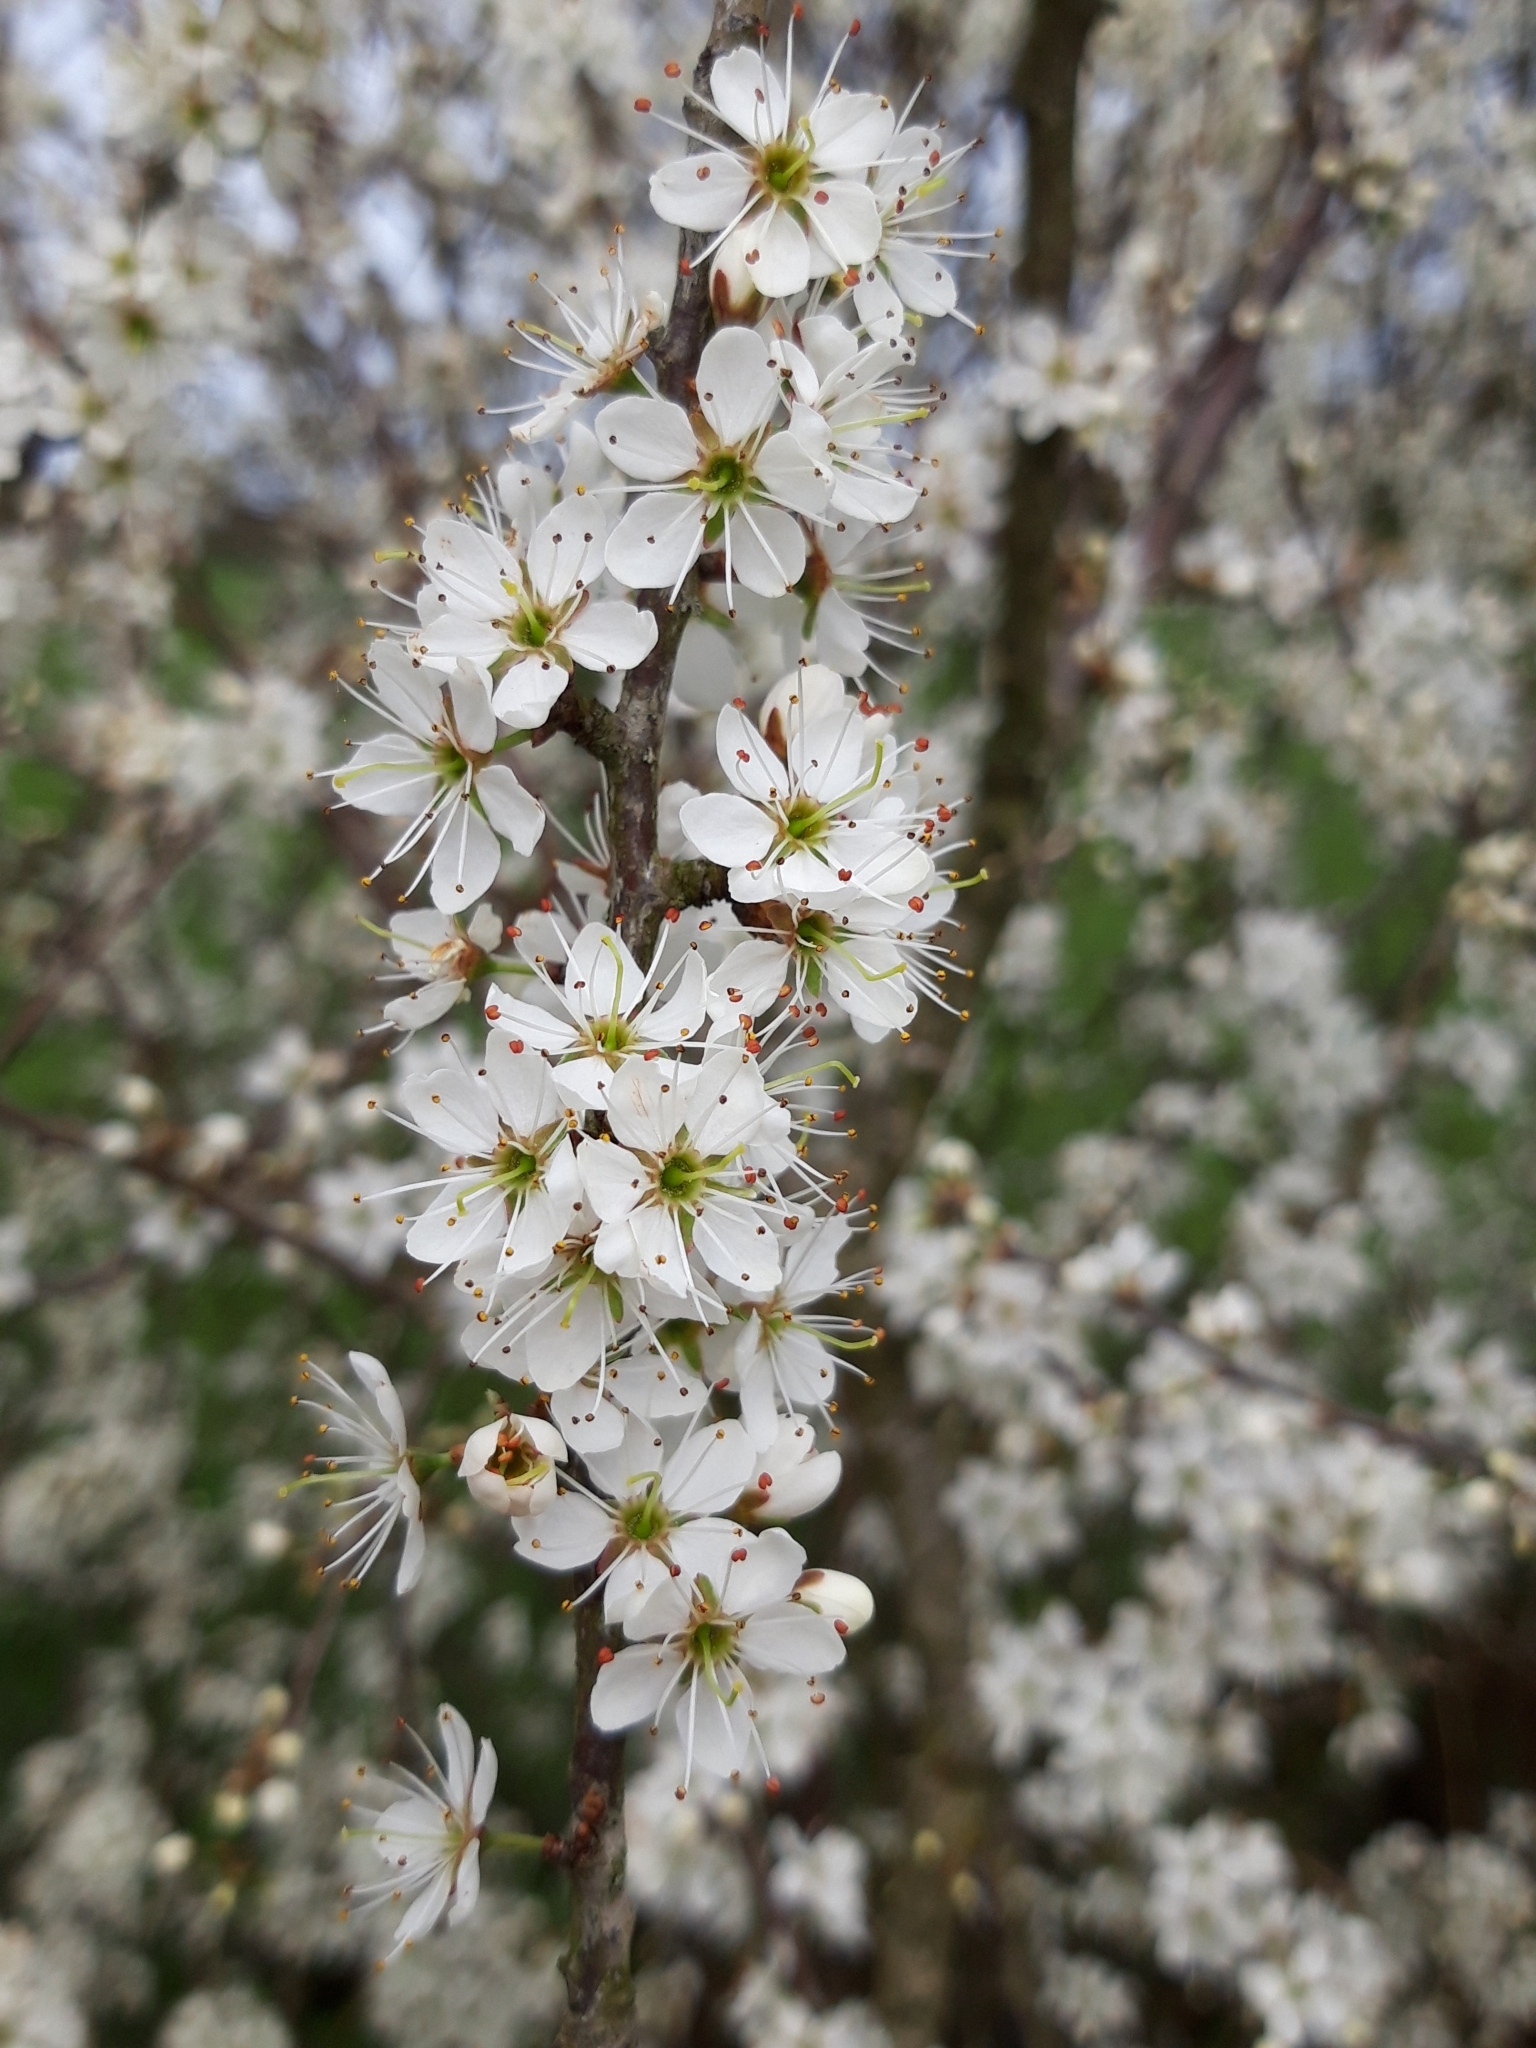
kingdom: Plantae
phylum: Tracheophyta
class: Magnoliopsida
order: Rosales
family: Rosaceae
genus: Prunus
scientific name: Prunus spinosa
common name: Blackthorn
